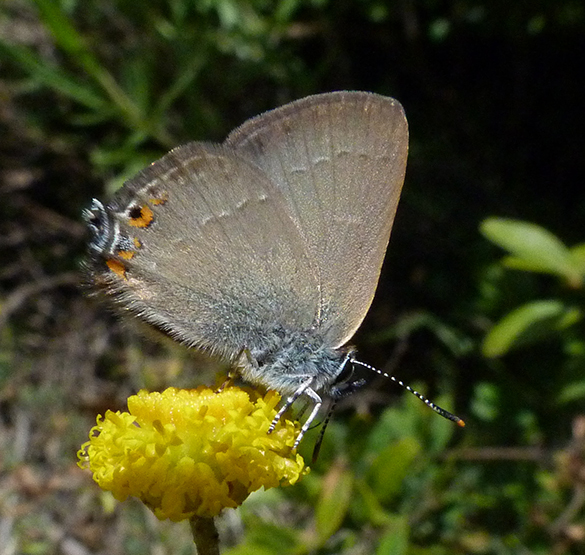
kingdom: Animalia
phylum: Arthropoda
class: Insecta
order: Lepidoptera
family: Lycaenidae
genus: Strymon
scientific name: Strymon acaciae
